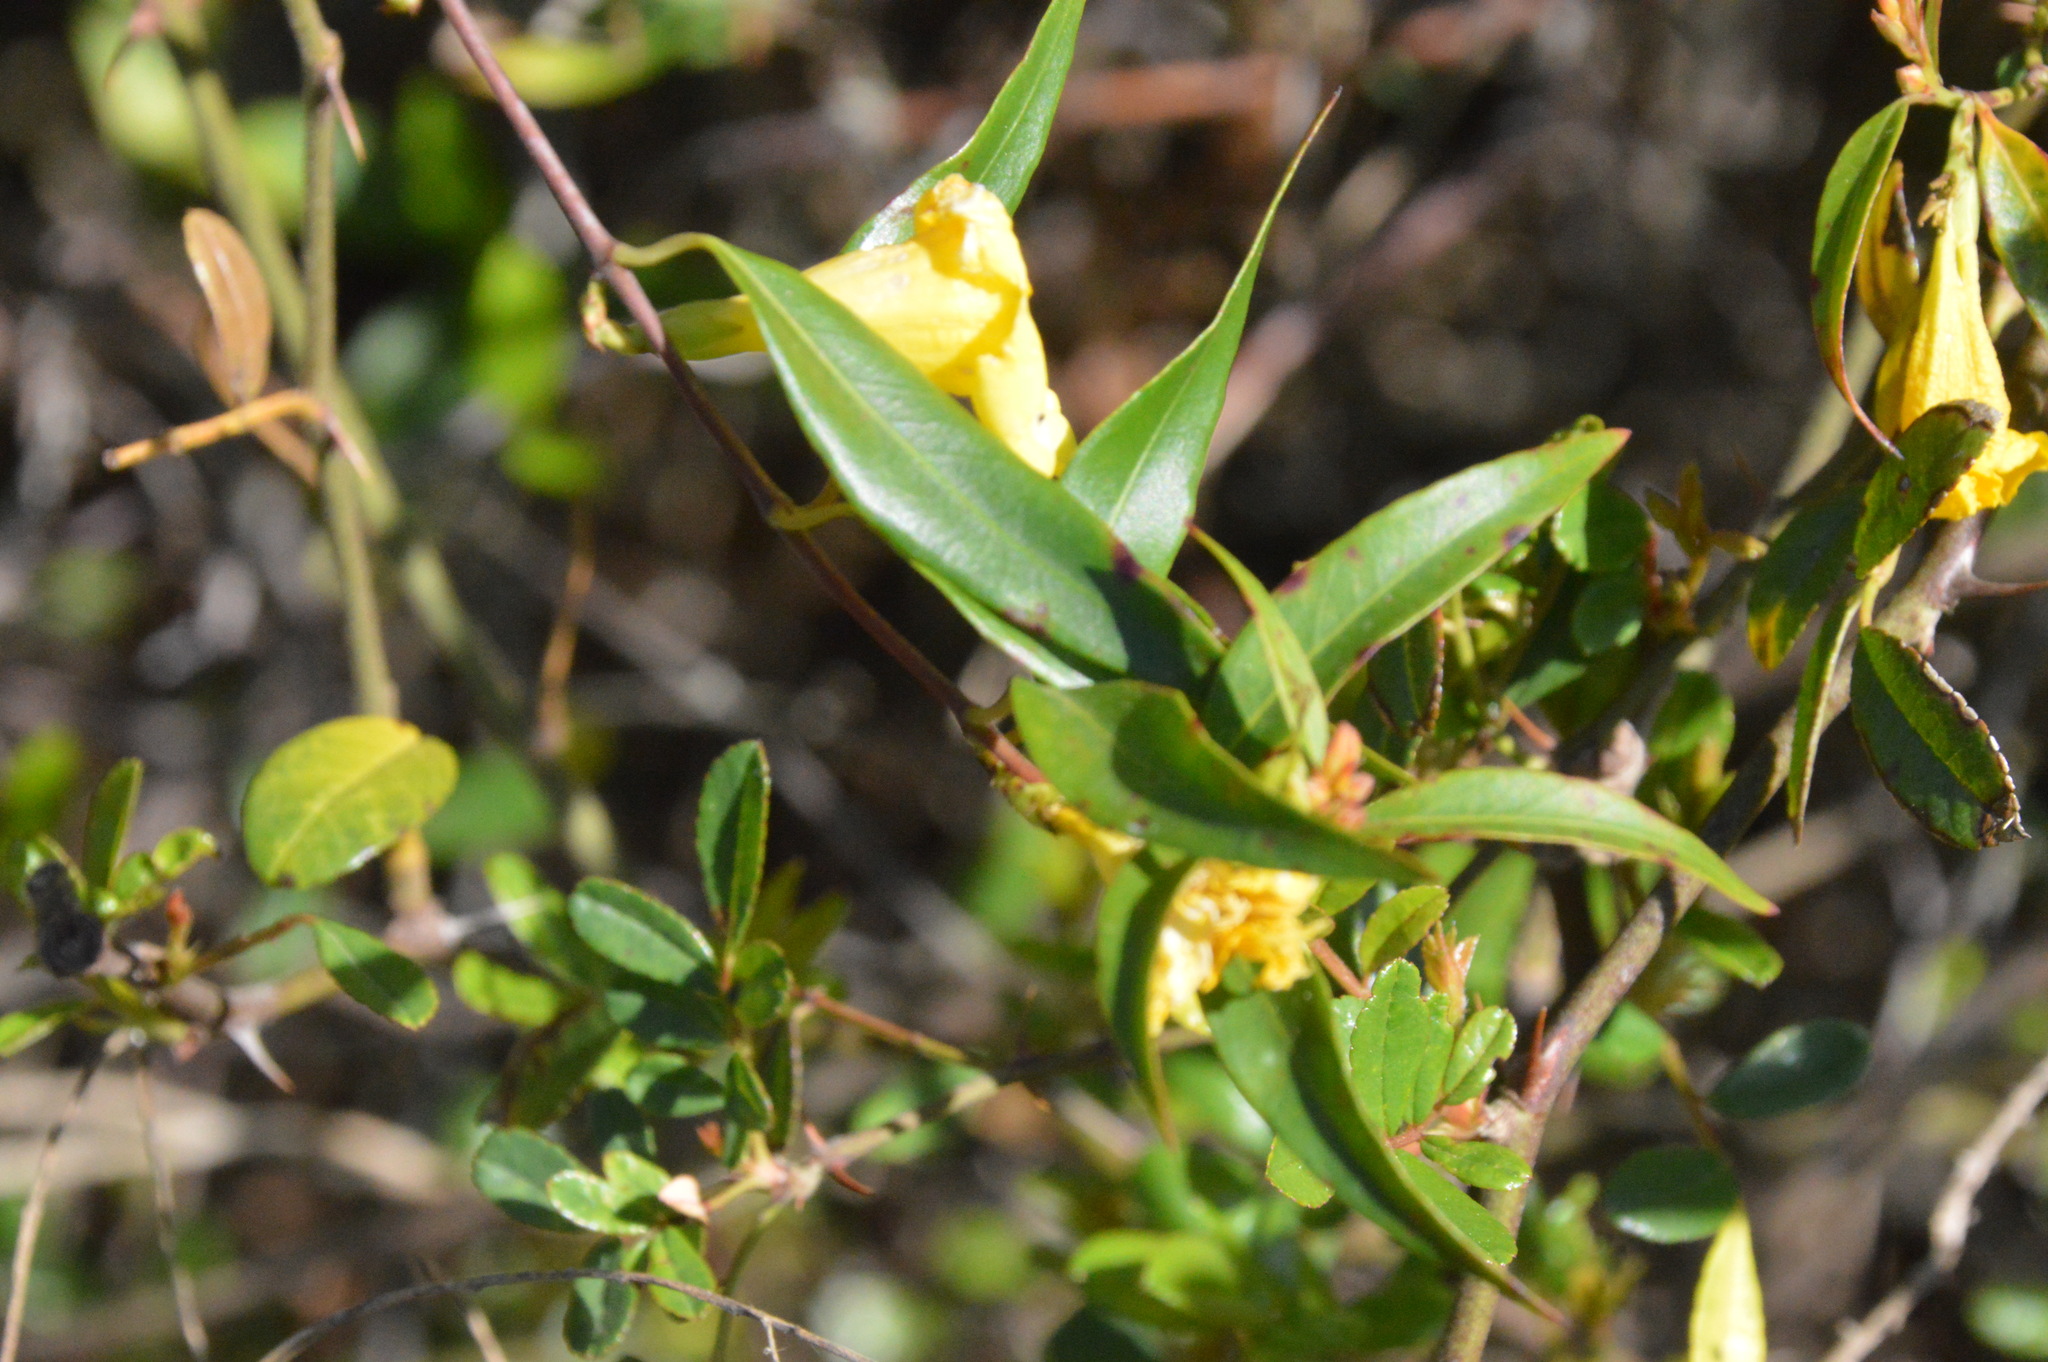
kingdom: Plantae
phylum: Tracheophyta
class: Magnoliopsida
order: Gentianales
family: Gelsemiaceae
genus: Gelsemium
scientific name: Gelsemium sempervirens
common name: Carolina-jasmine
